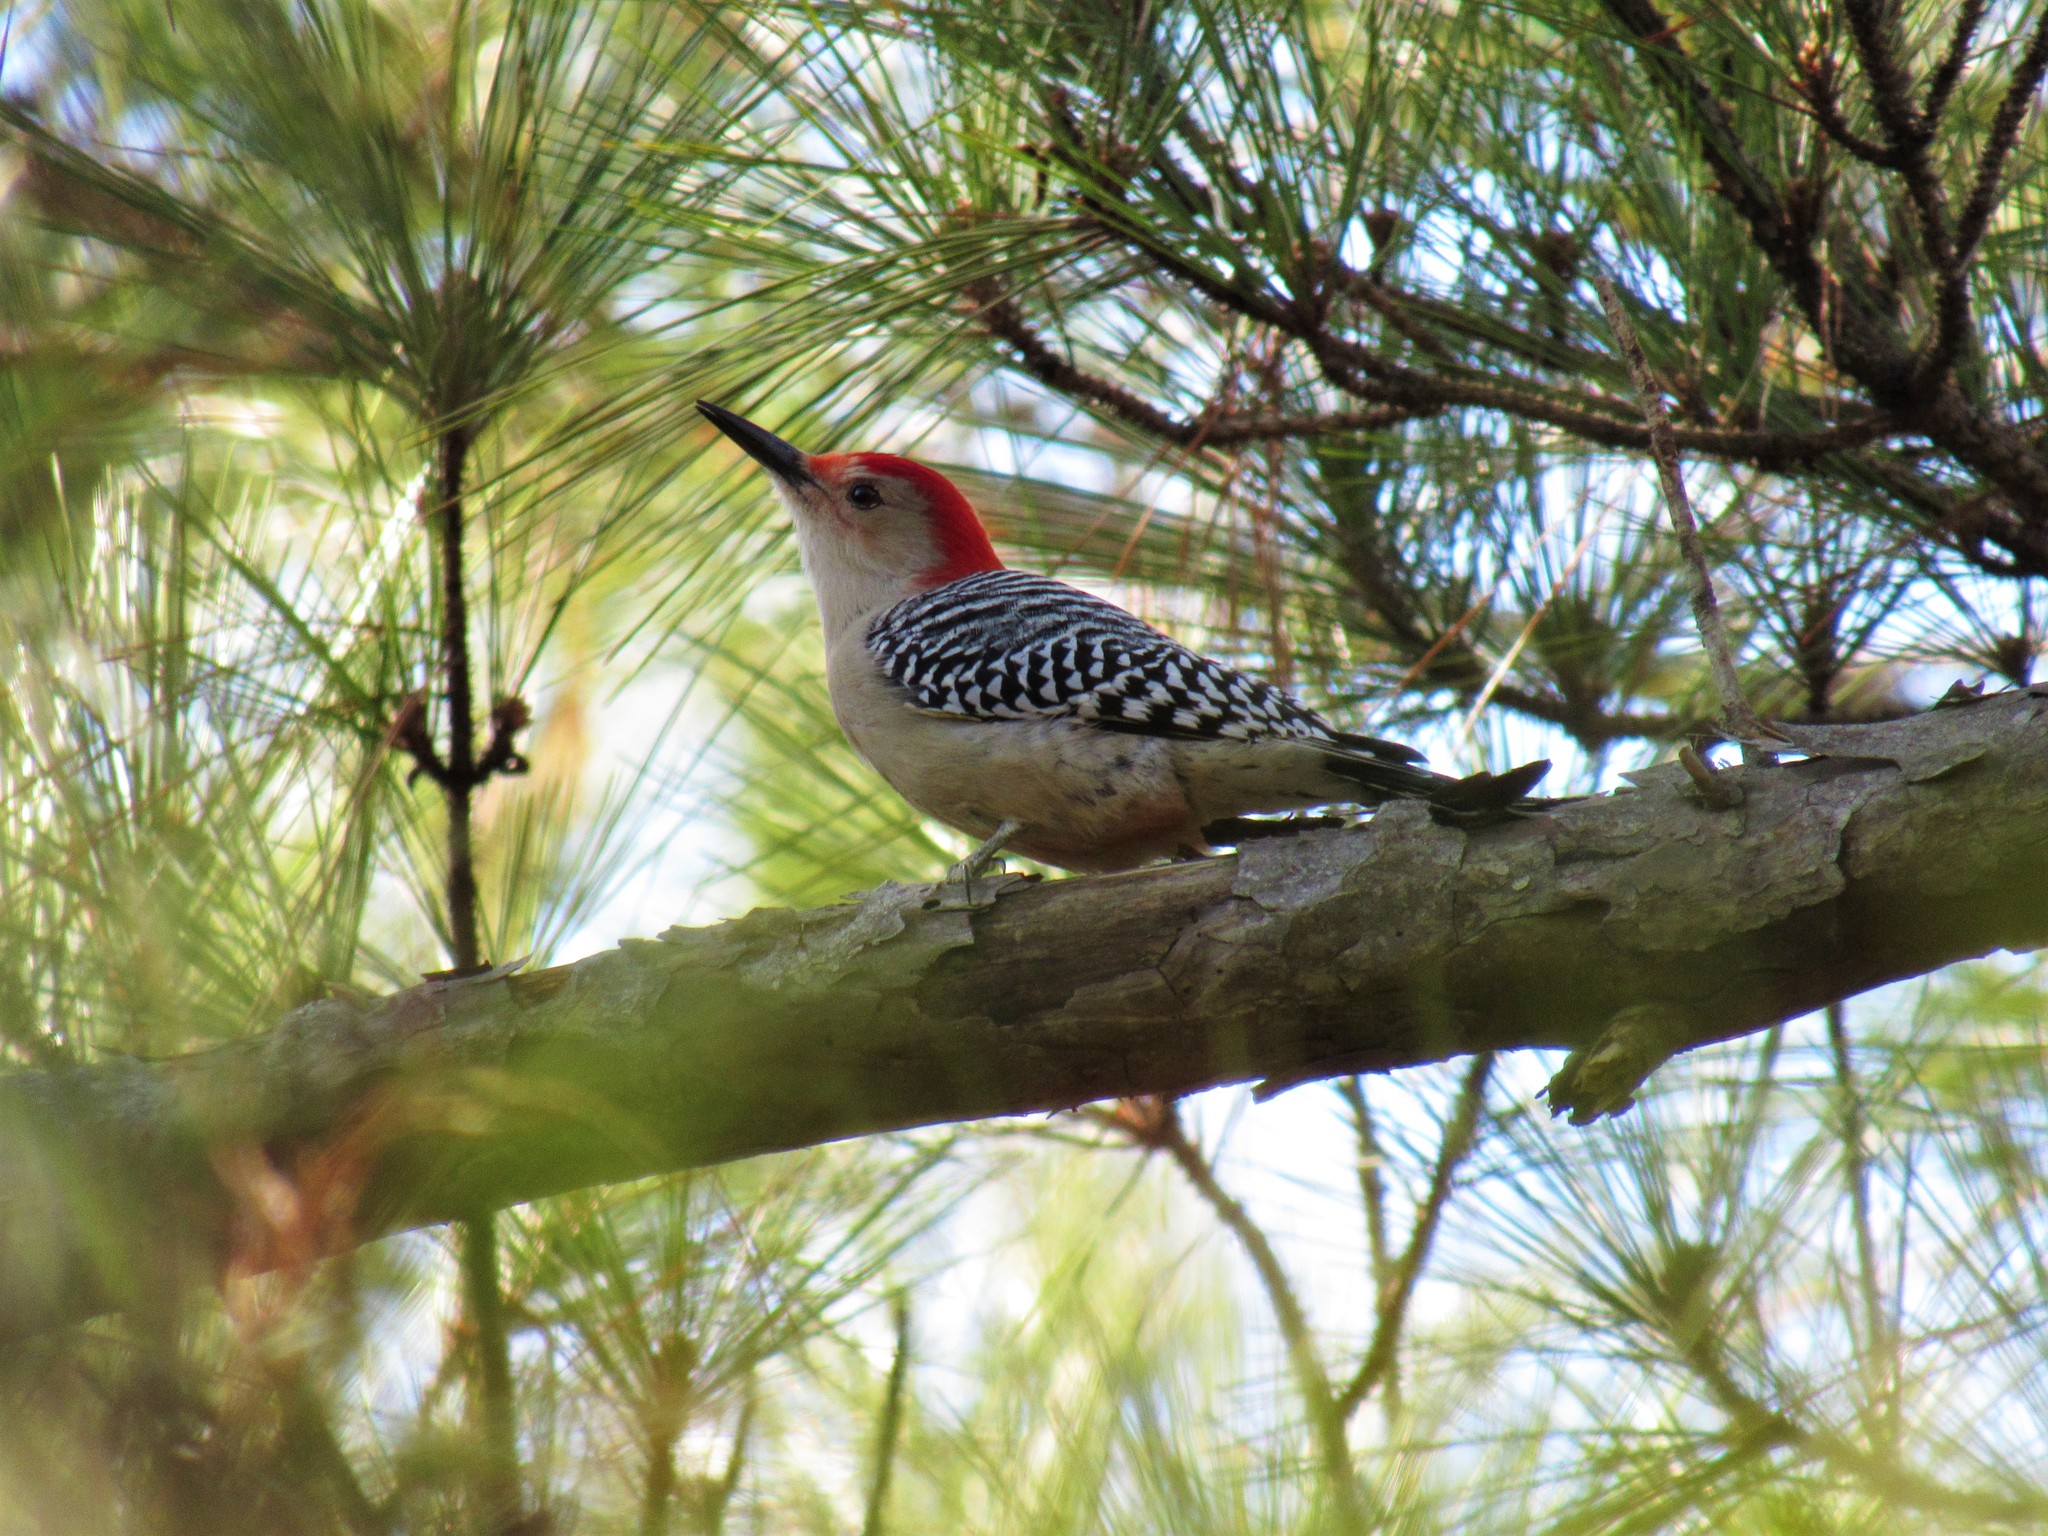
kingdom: Animalia
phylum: Chordata
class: Aves
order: Piciformes
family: Picidae
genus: Melanerpes
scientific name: Melanerpes carolinus
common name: Red-bellied woodpecker
